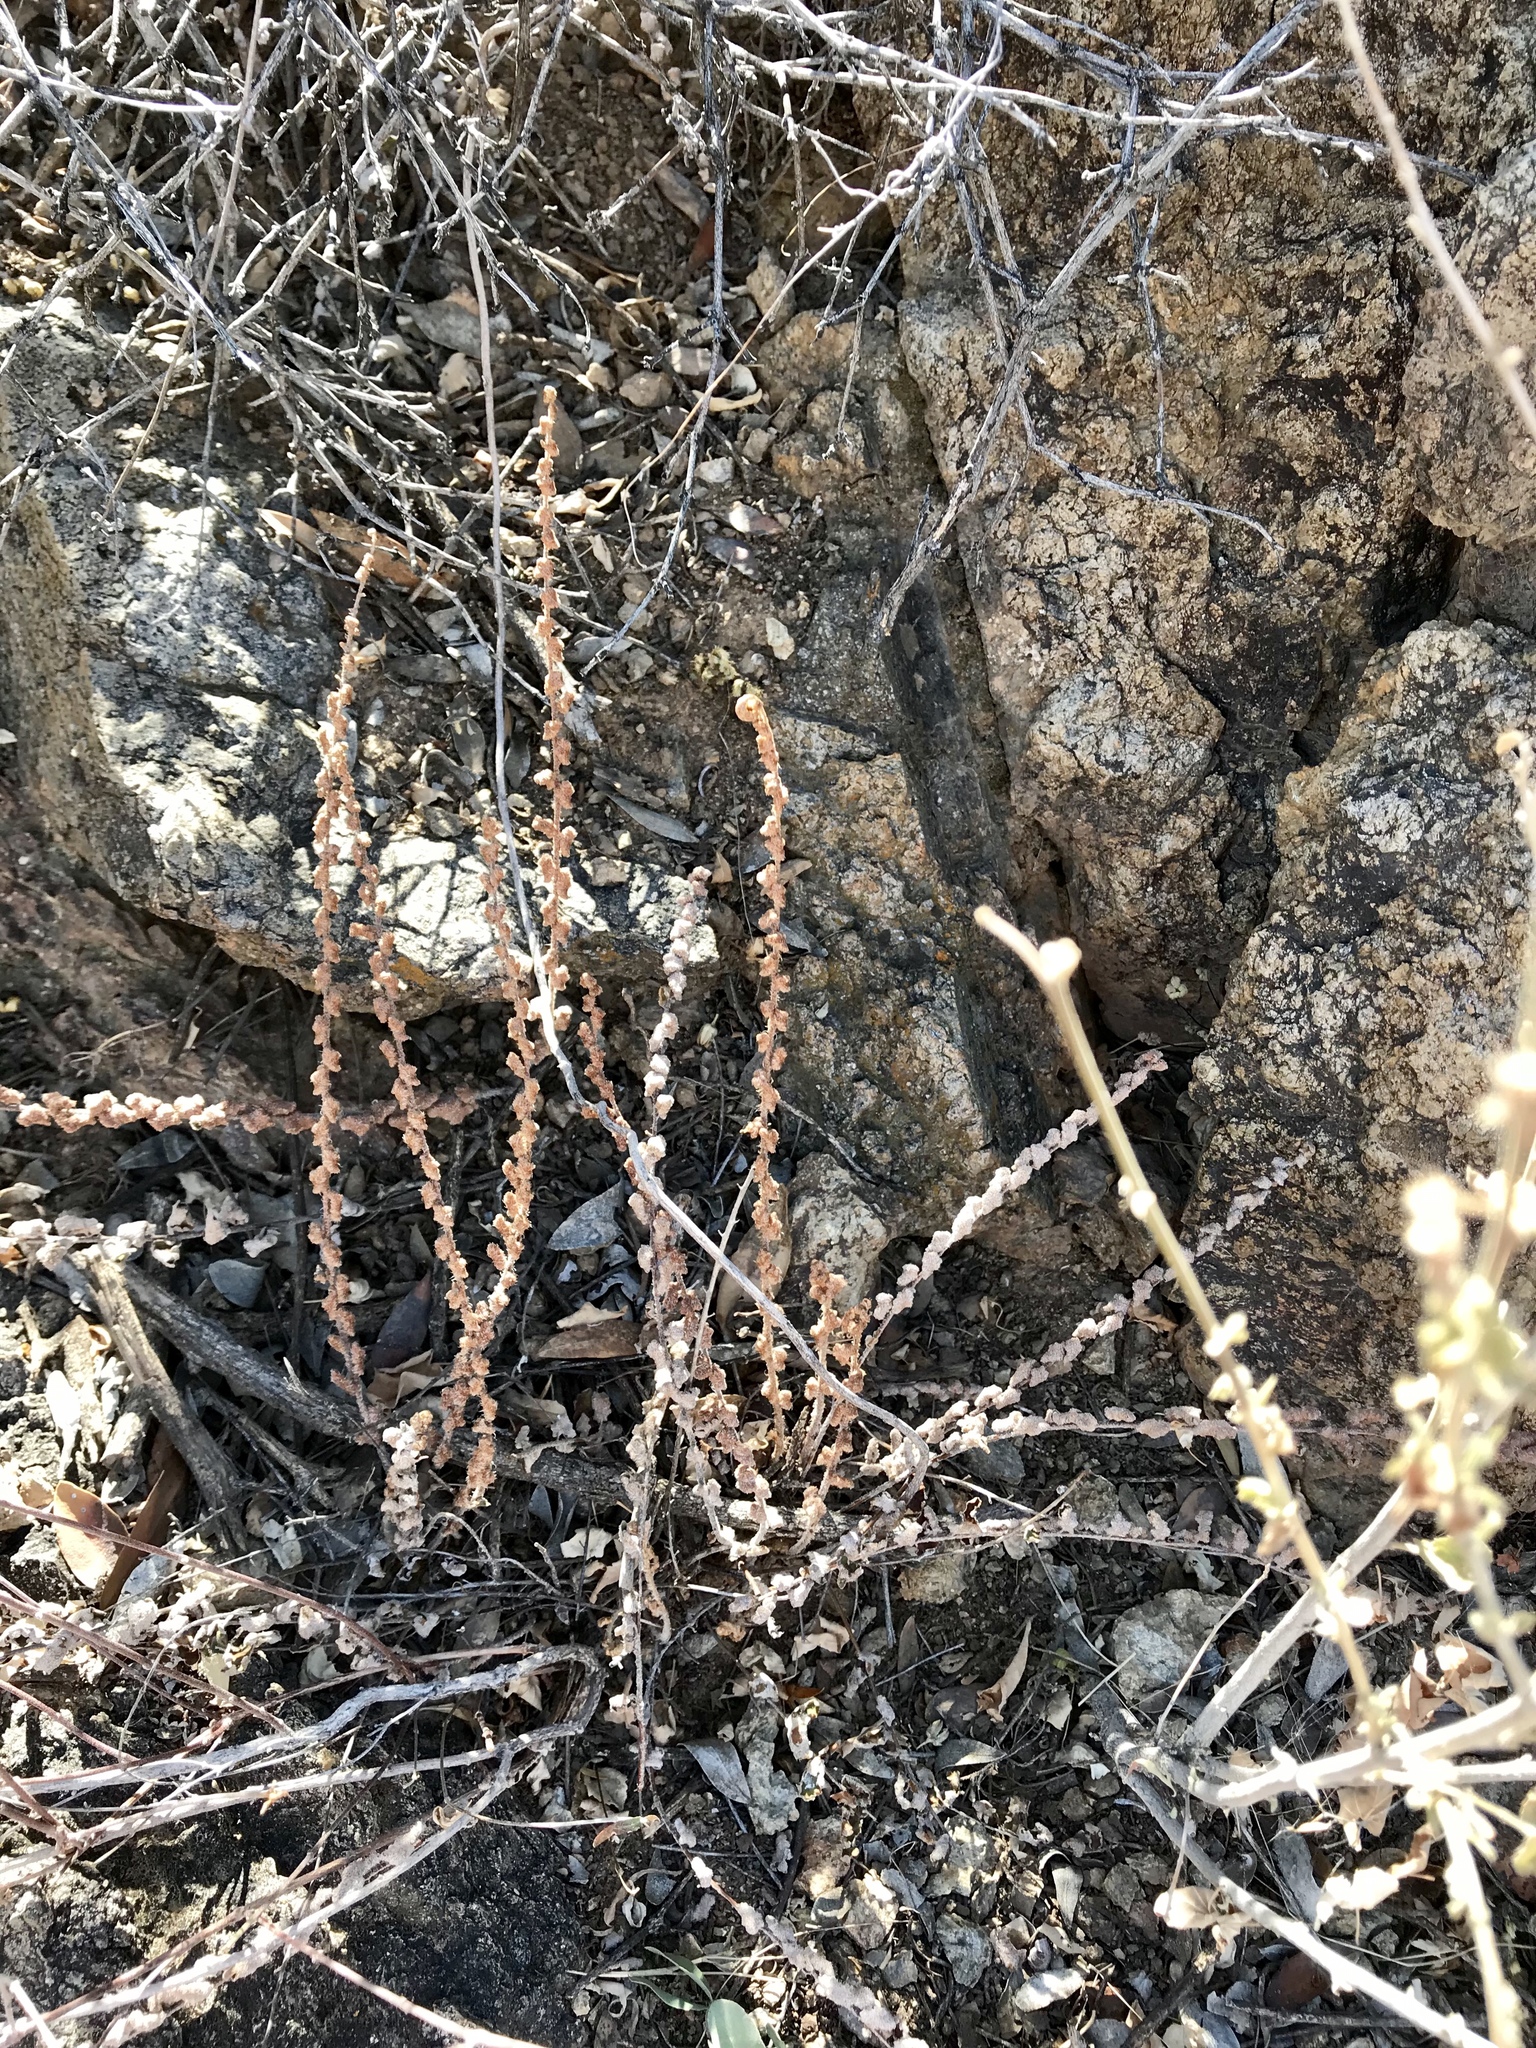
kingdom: Plantae
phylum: Tracheophyta
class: Polypodiopsida
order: Polypodiales
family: Pteridaceae
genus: Astrolepis
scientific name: Astrolepis cochisensis
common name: Scaly cloak fern
